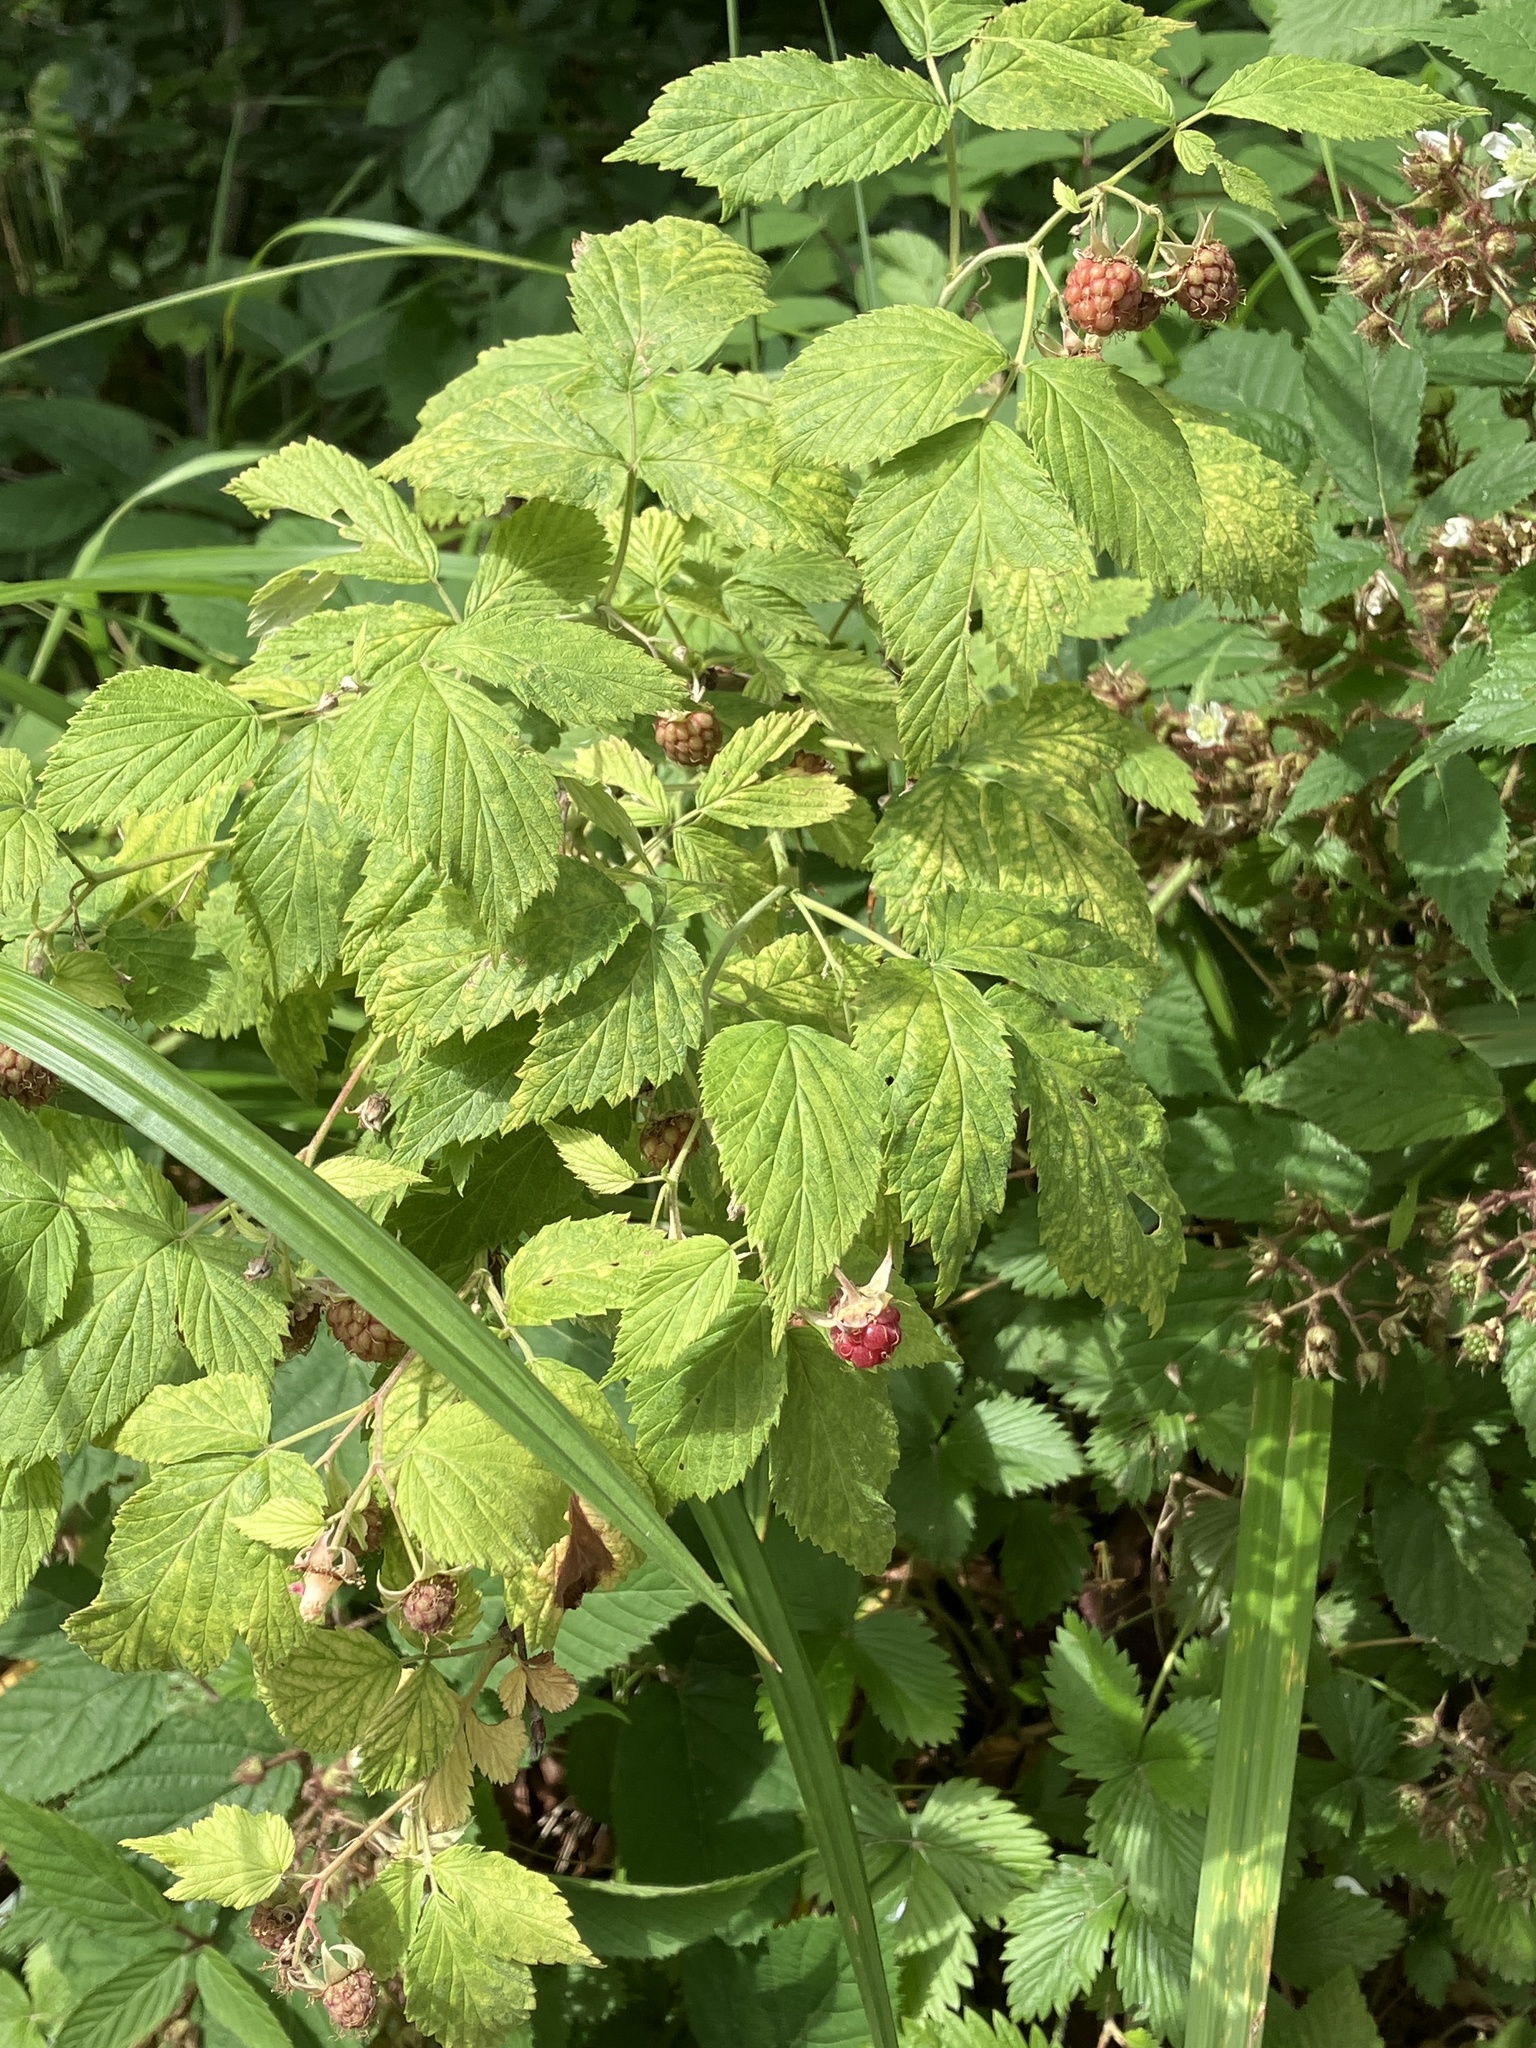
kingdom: Plantae
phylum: Tracheophyta
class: Magnoliopsida
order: Rosales
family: Rosaceae
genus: Rubus
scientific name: Rubus idaeus
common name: Raspberry
